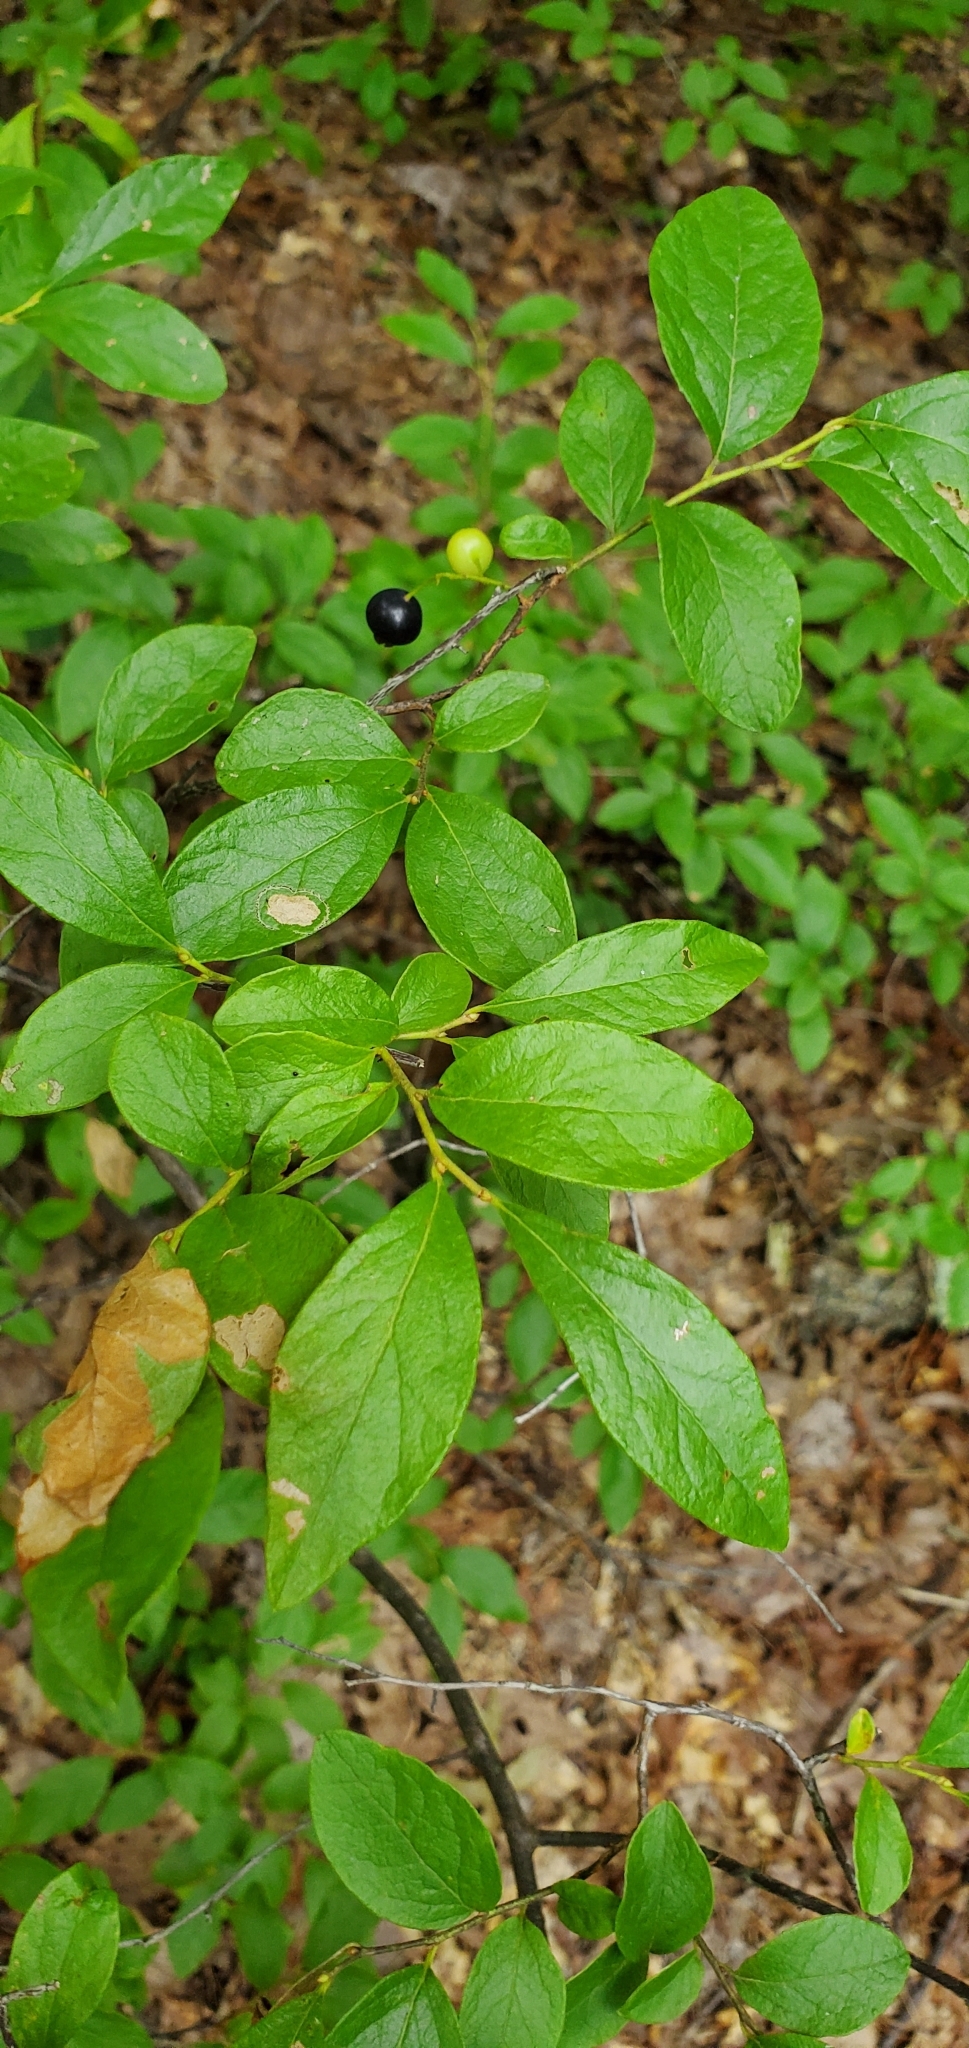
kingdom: Plantae
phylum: Tracheophyta
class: Magnoliopsida
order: Ericales
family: Ericaceae
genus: Gaylussacia
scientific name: Gaylussacia baccata
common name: Black huckleberry
